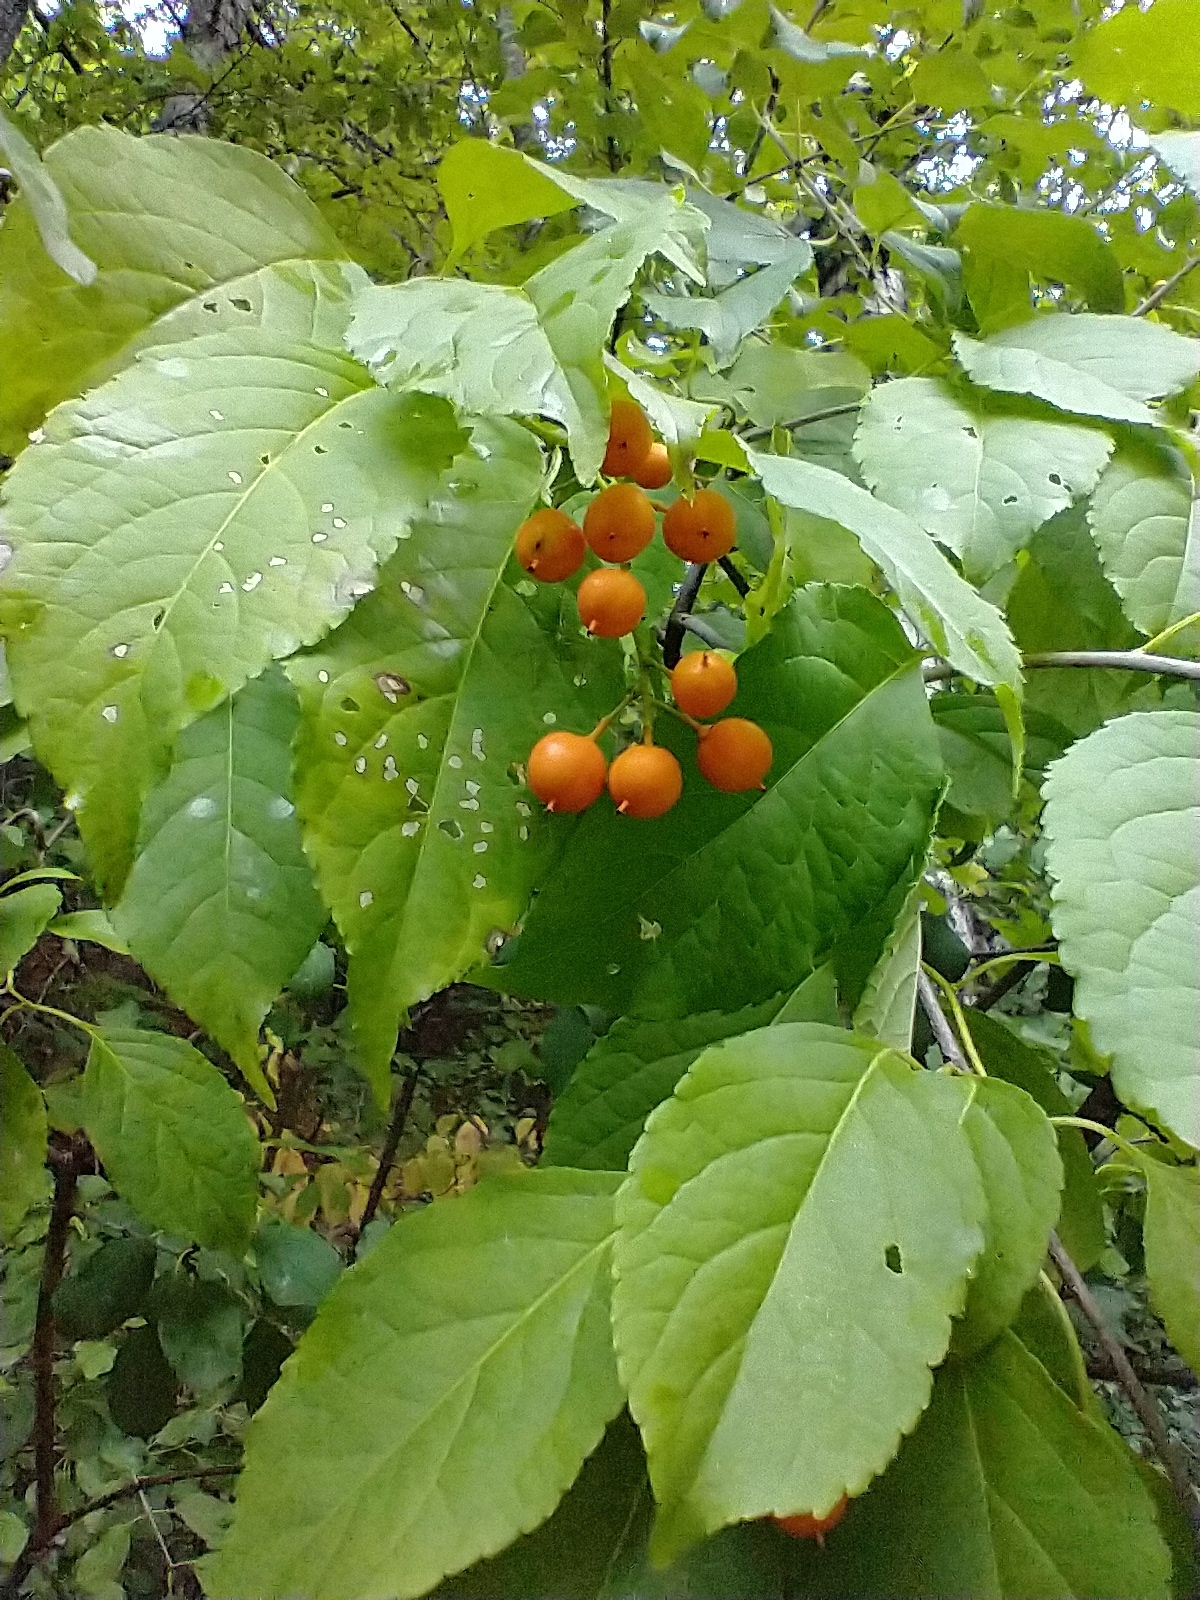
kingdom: Plantae
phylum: Tracheophyta
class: Magnoliopsida
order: Celastrales
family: Celastraceae
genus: Celastrus
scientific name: Celastrus scandens
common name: American bittersweet
